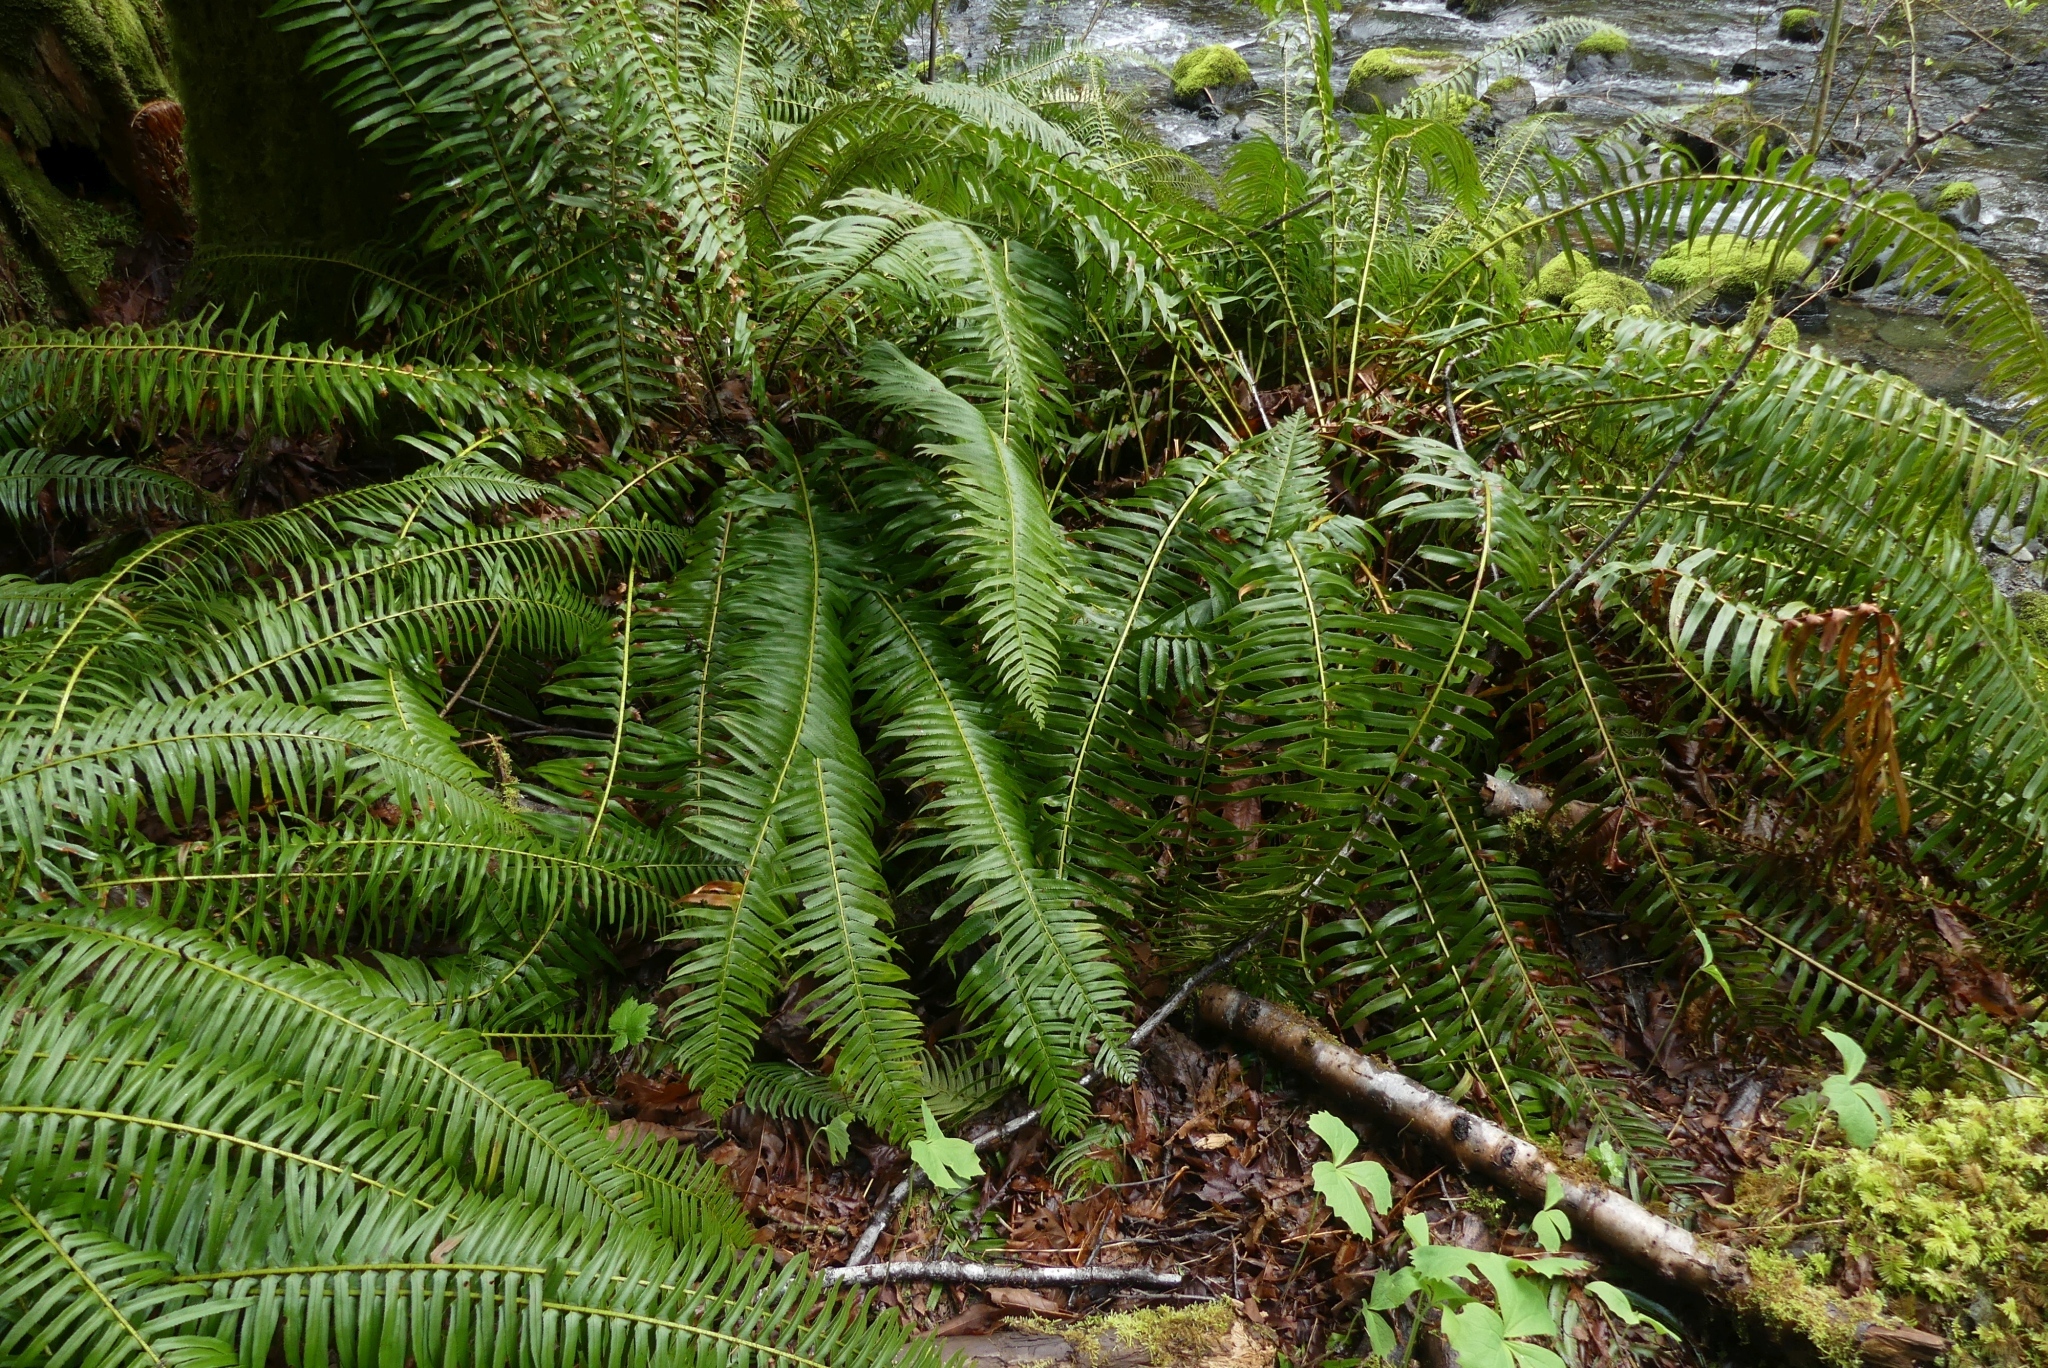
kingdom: Plantae
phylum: Tracheophyta
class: Polypodiopsida
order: Polypodiales
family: Dryopteridaceae
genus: Polystichum
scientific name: Polystichum munitum
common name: Western sword-fern
